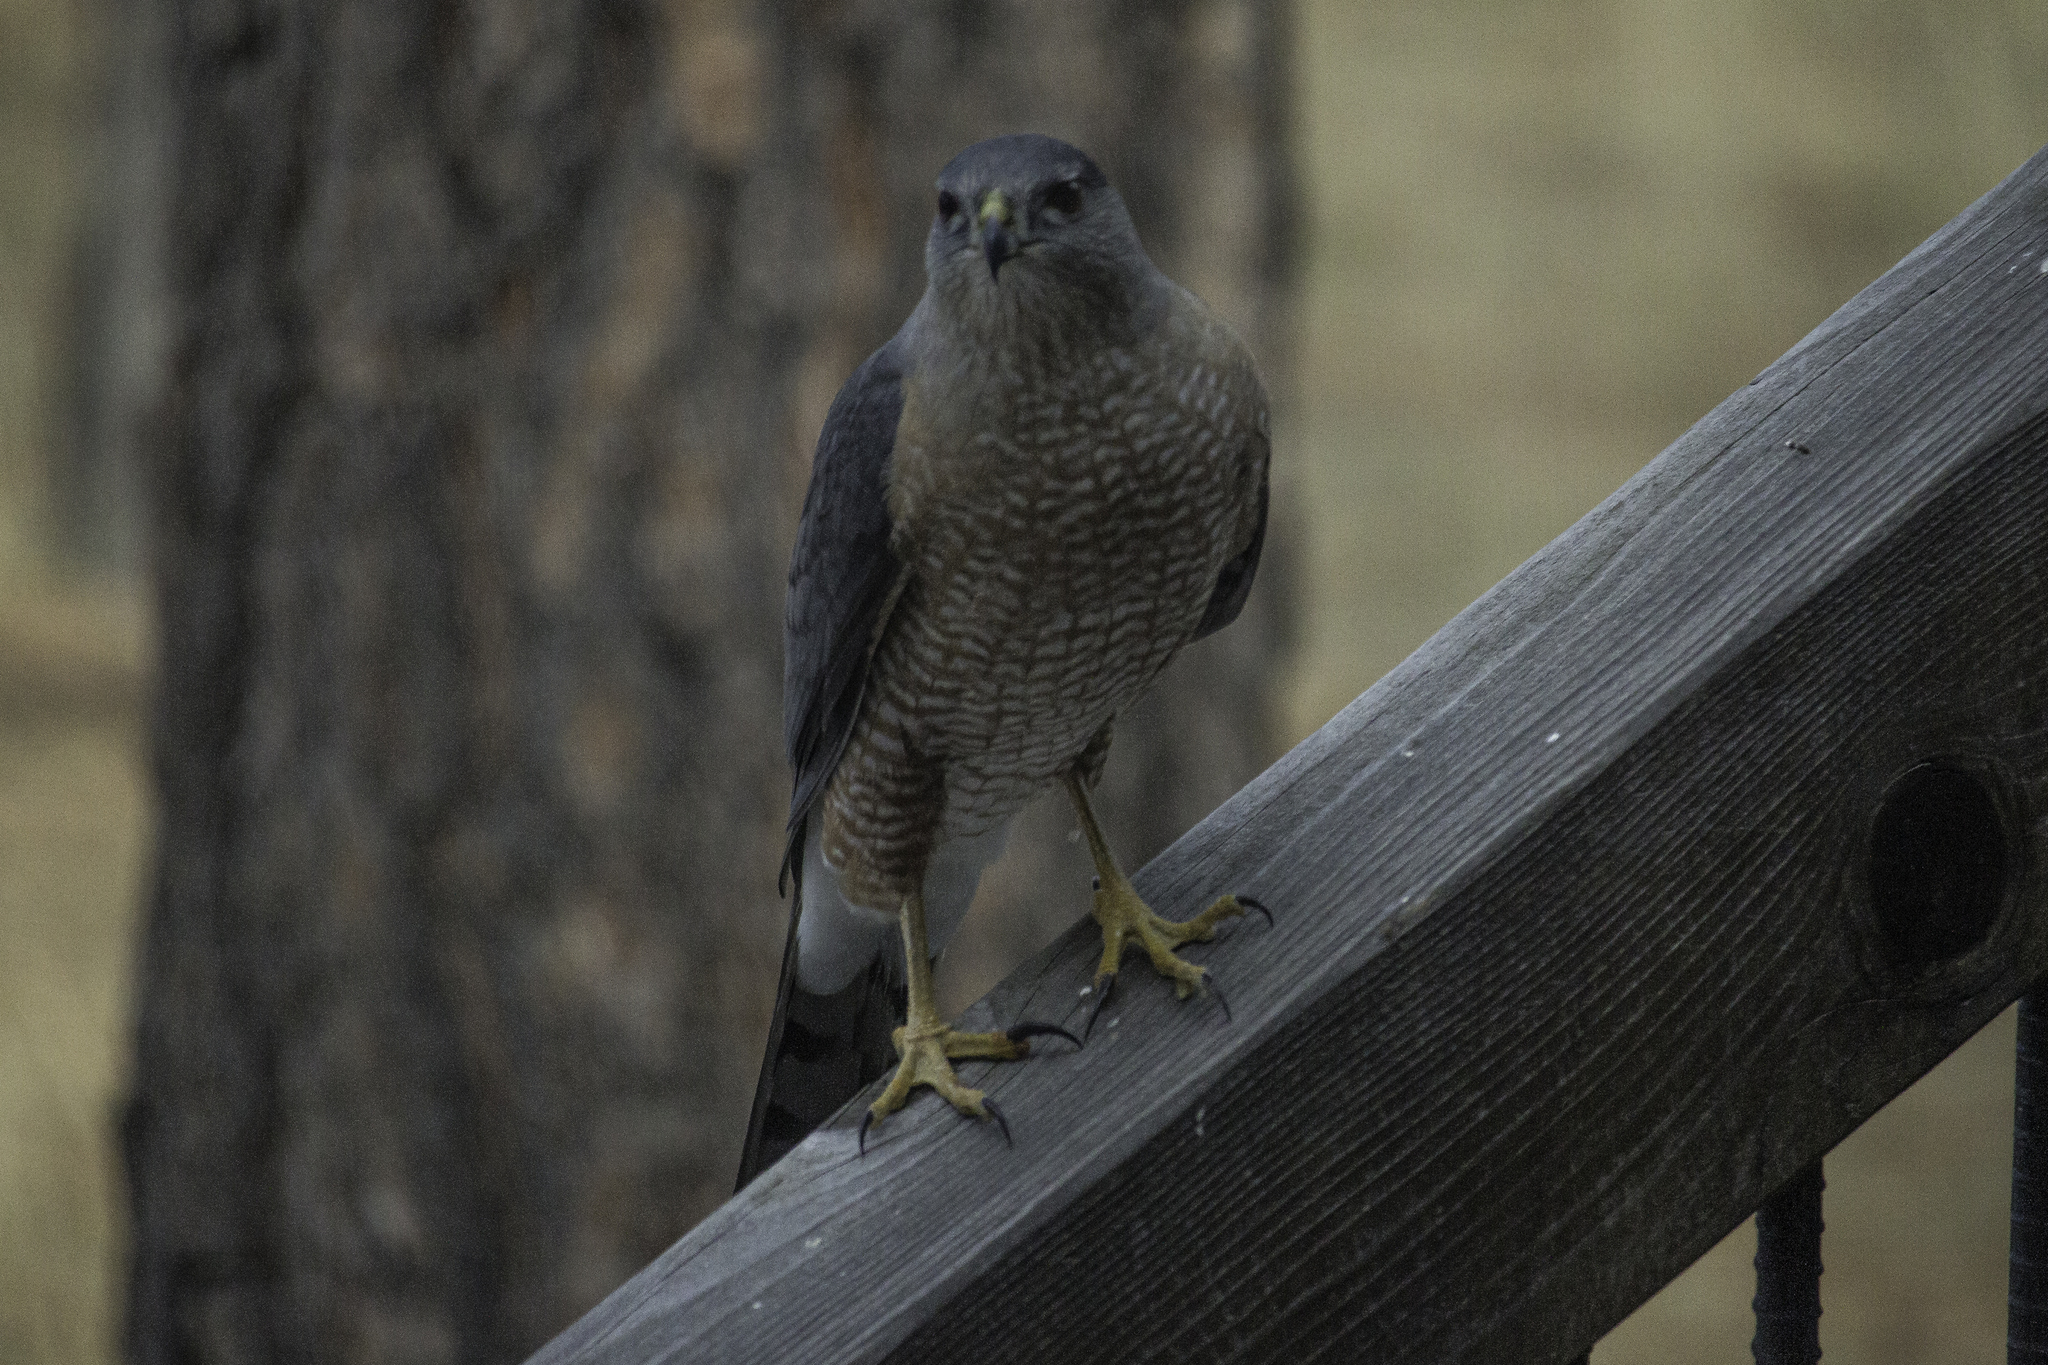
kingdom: Animalia
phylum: Chordata
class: Aves
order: Accipitriformes
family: Accipitridae
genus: Accipiter
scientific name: Accipiter cooperii
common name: Cooper's hawk
